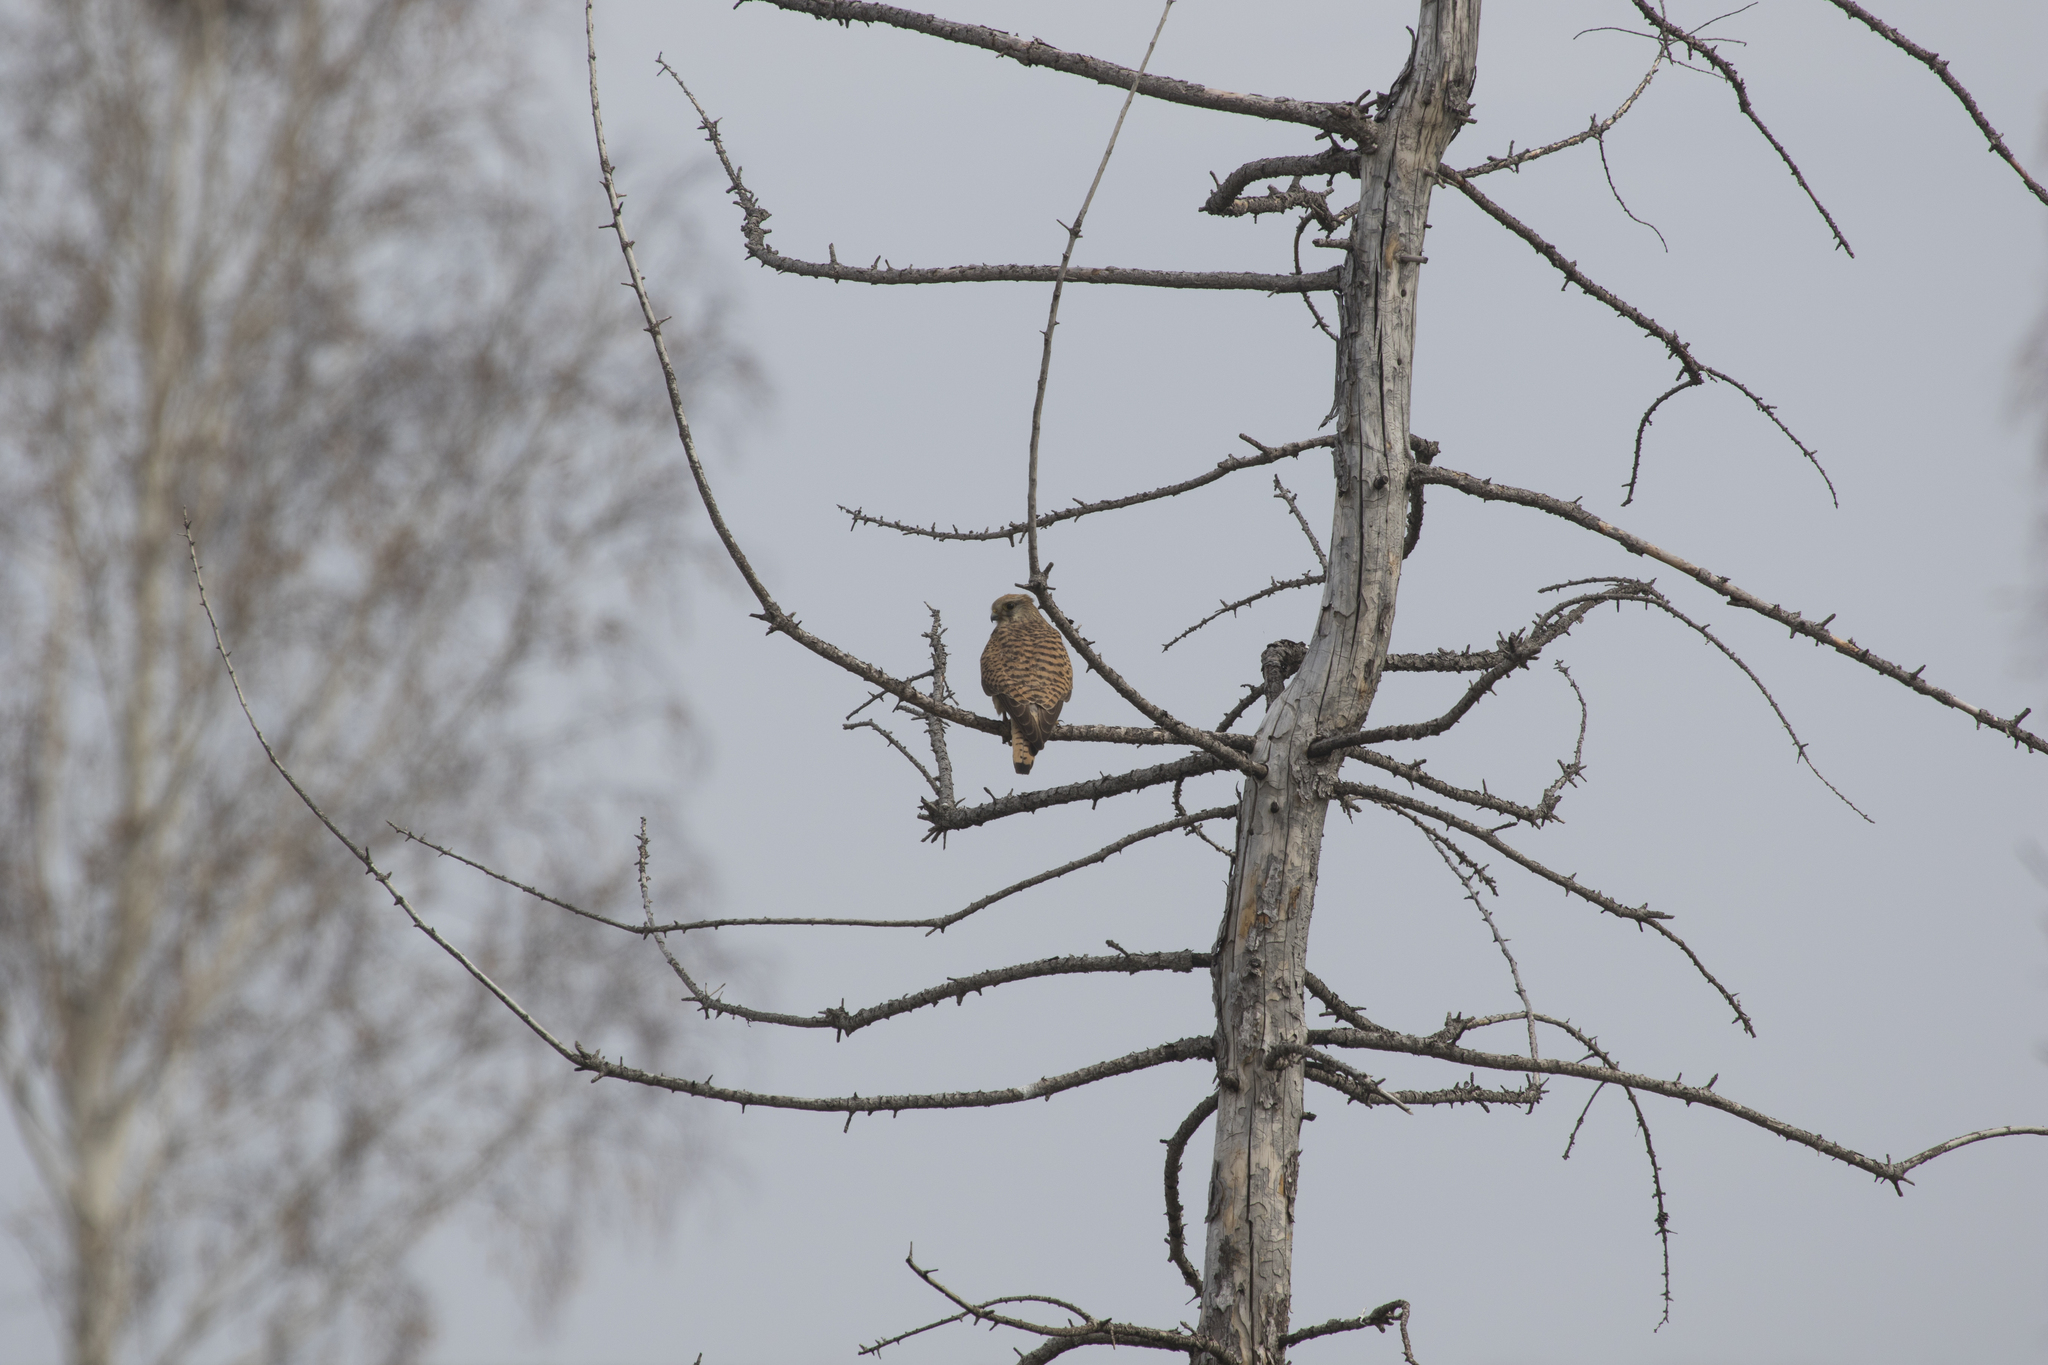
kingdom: Animalia
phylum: Chordata
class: Aves
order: Falconiformes
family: Falconidae
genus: Falco
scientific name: Falco tinnunculus
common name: Common kestrel
